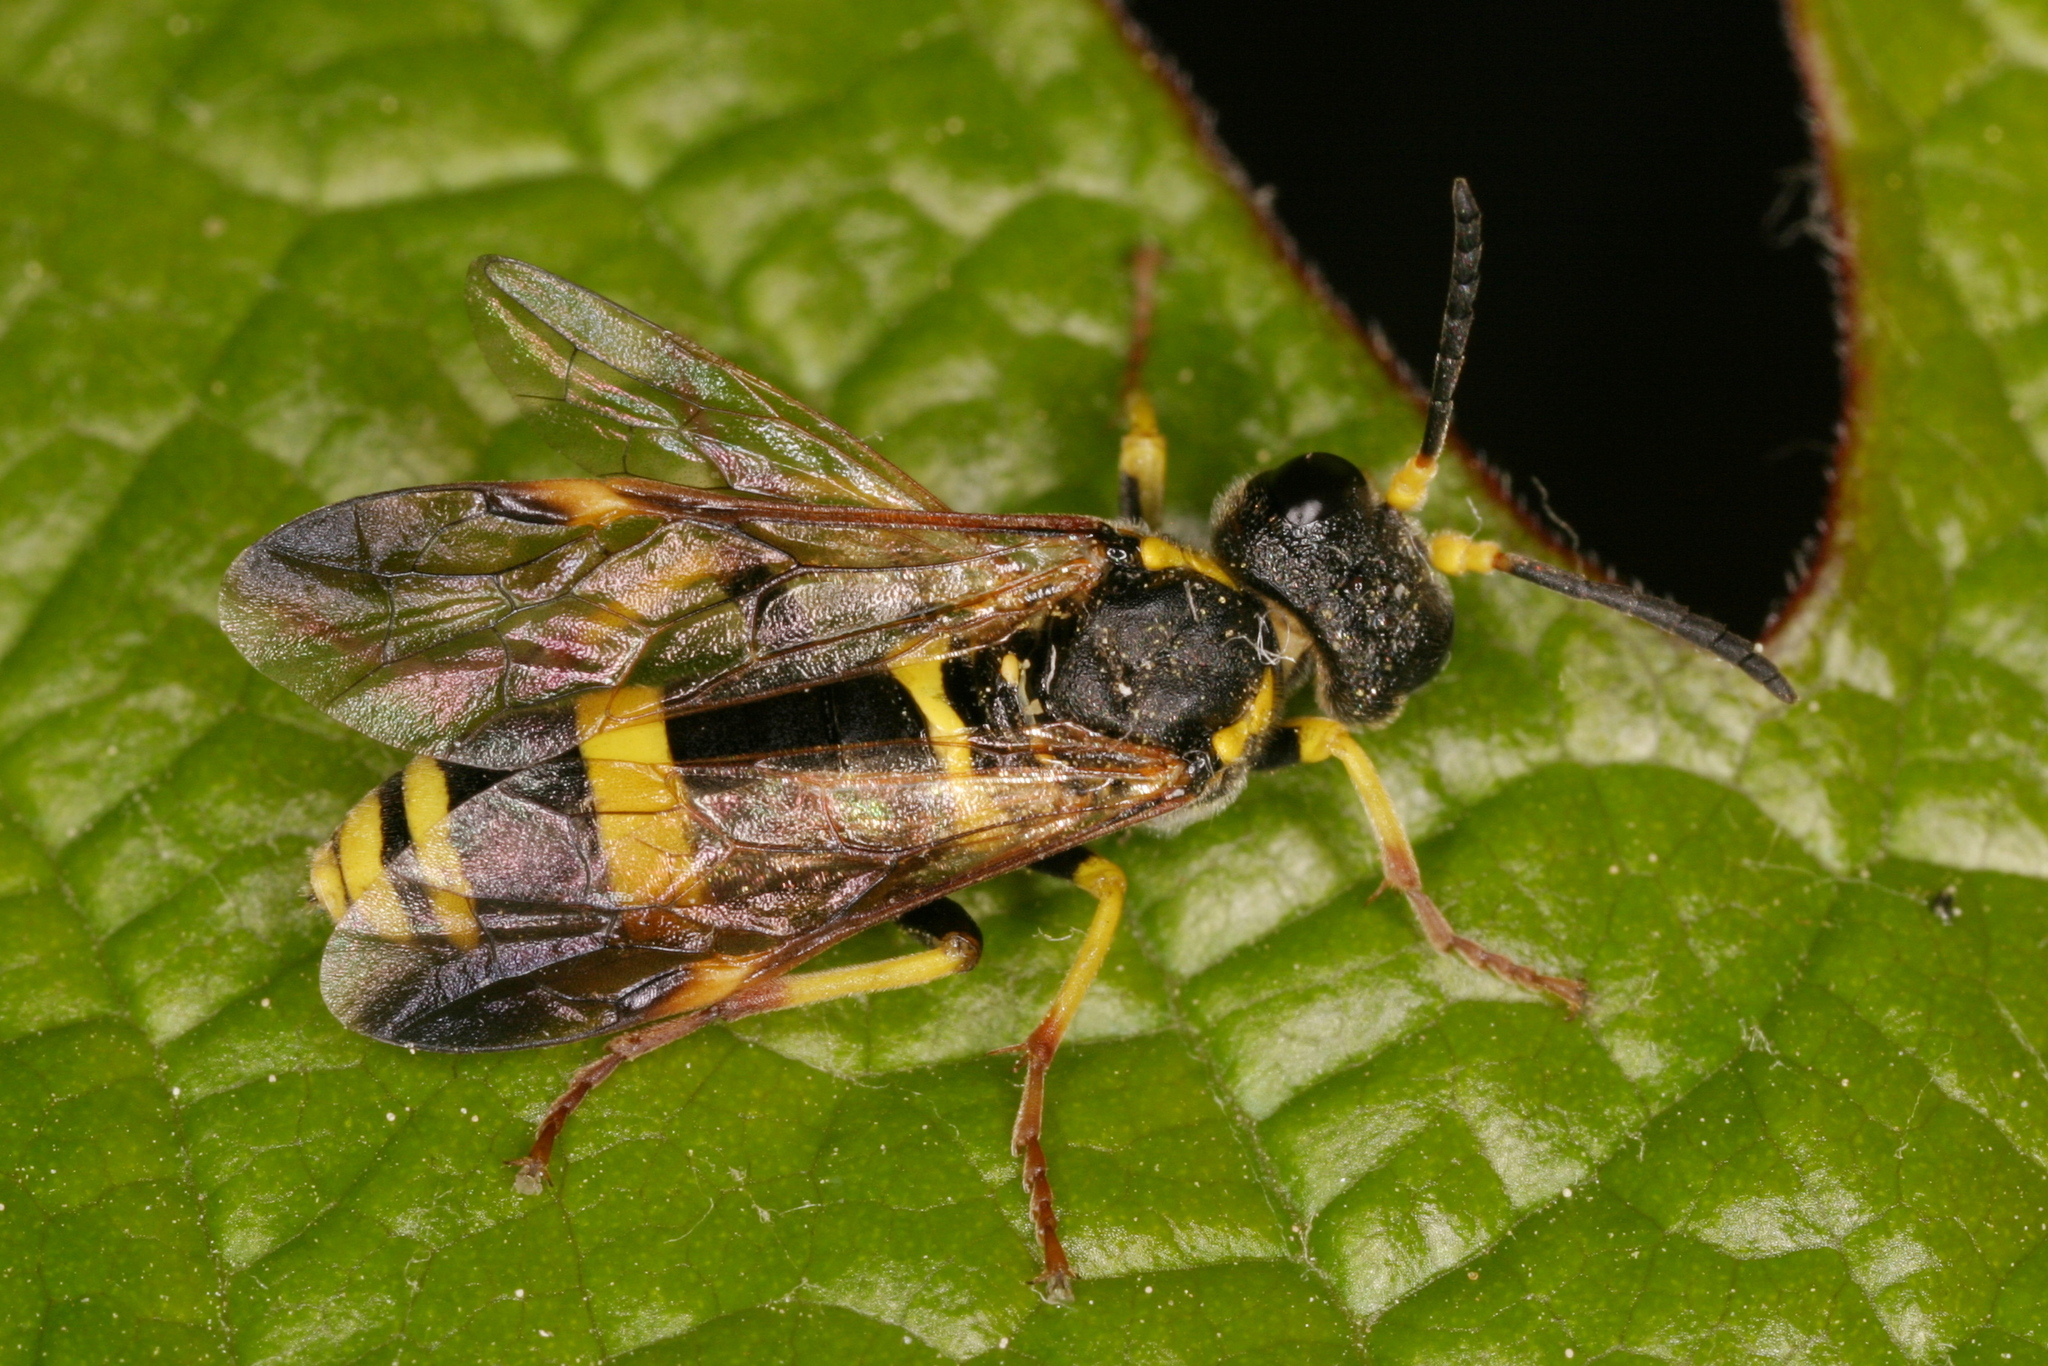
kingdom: Animalia
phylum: Arthropoda
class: Insecta
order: Hymenoptera
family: Tenthredinidae
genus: Tenthredo
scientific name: Tenthredo zona
